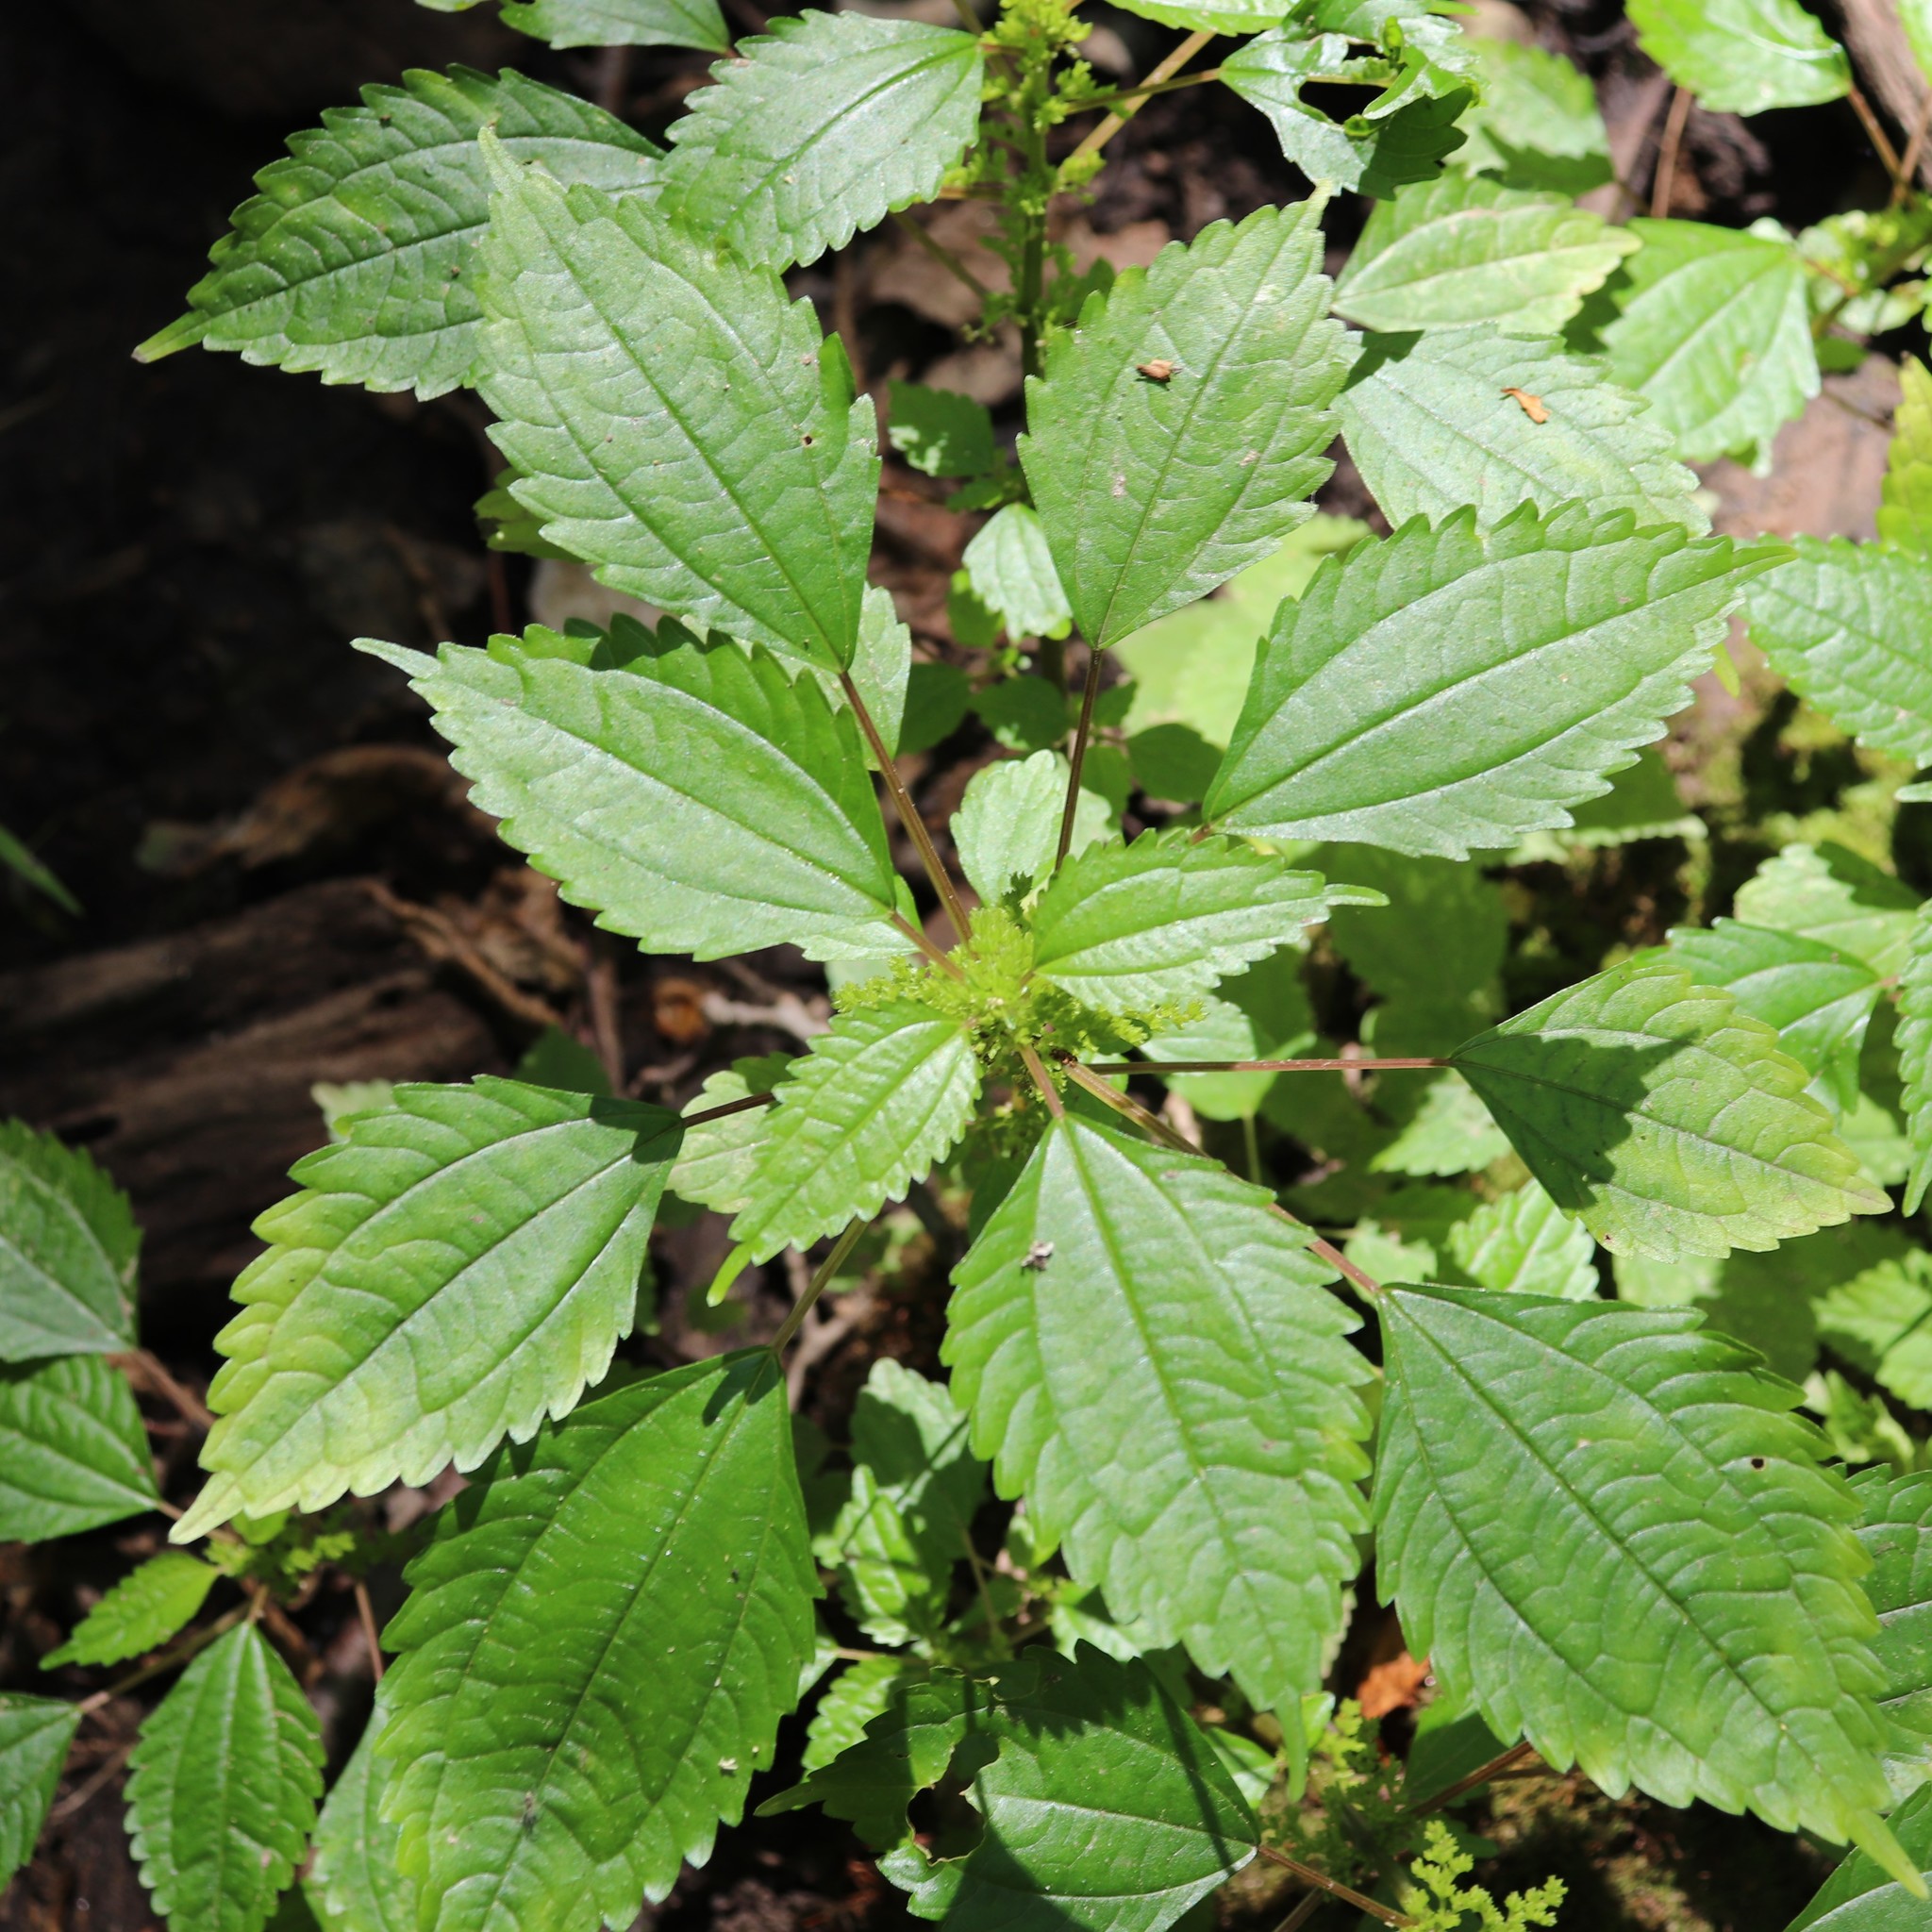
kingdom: Plantae
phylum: Tracheophyta
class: Magnoliopsida
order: Rosales
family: Urticaceae
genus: Pilea
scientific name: Pilea pumila
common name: Clearweed
